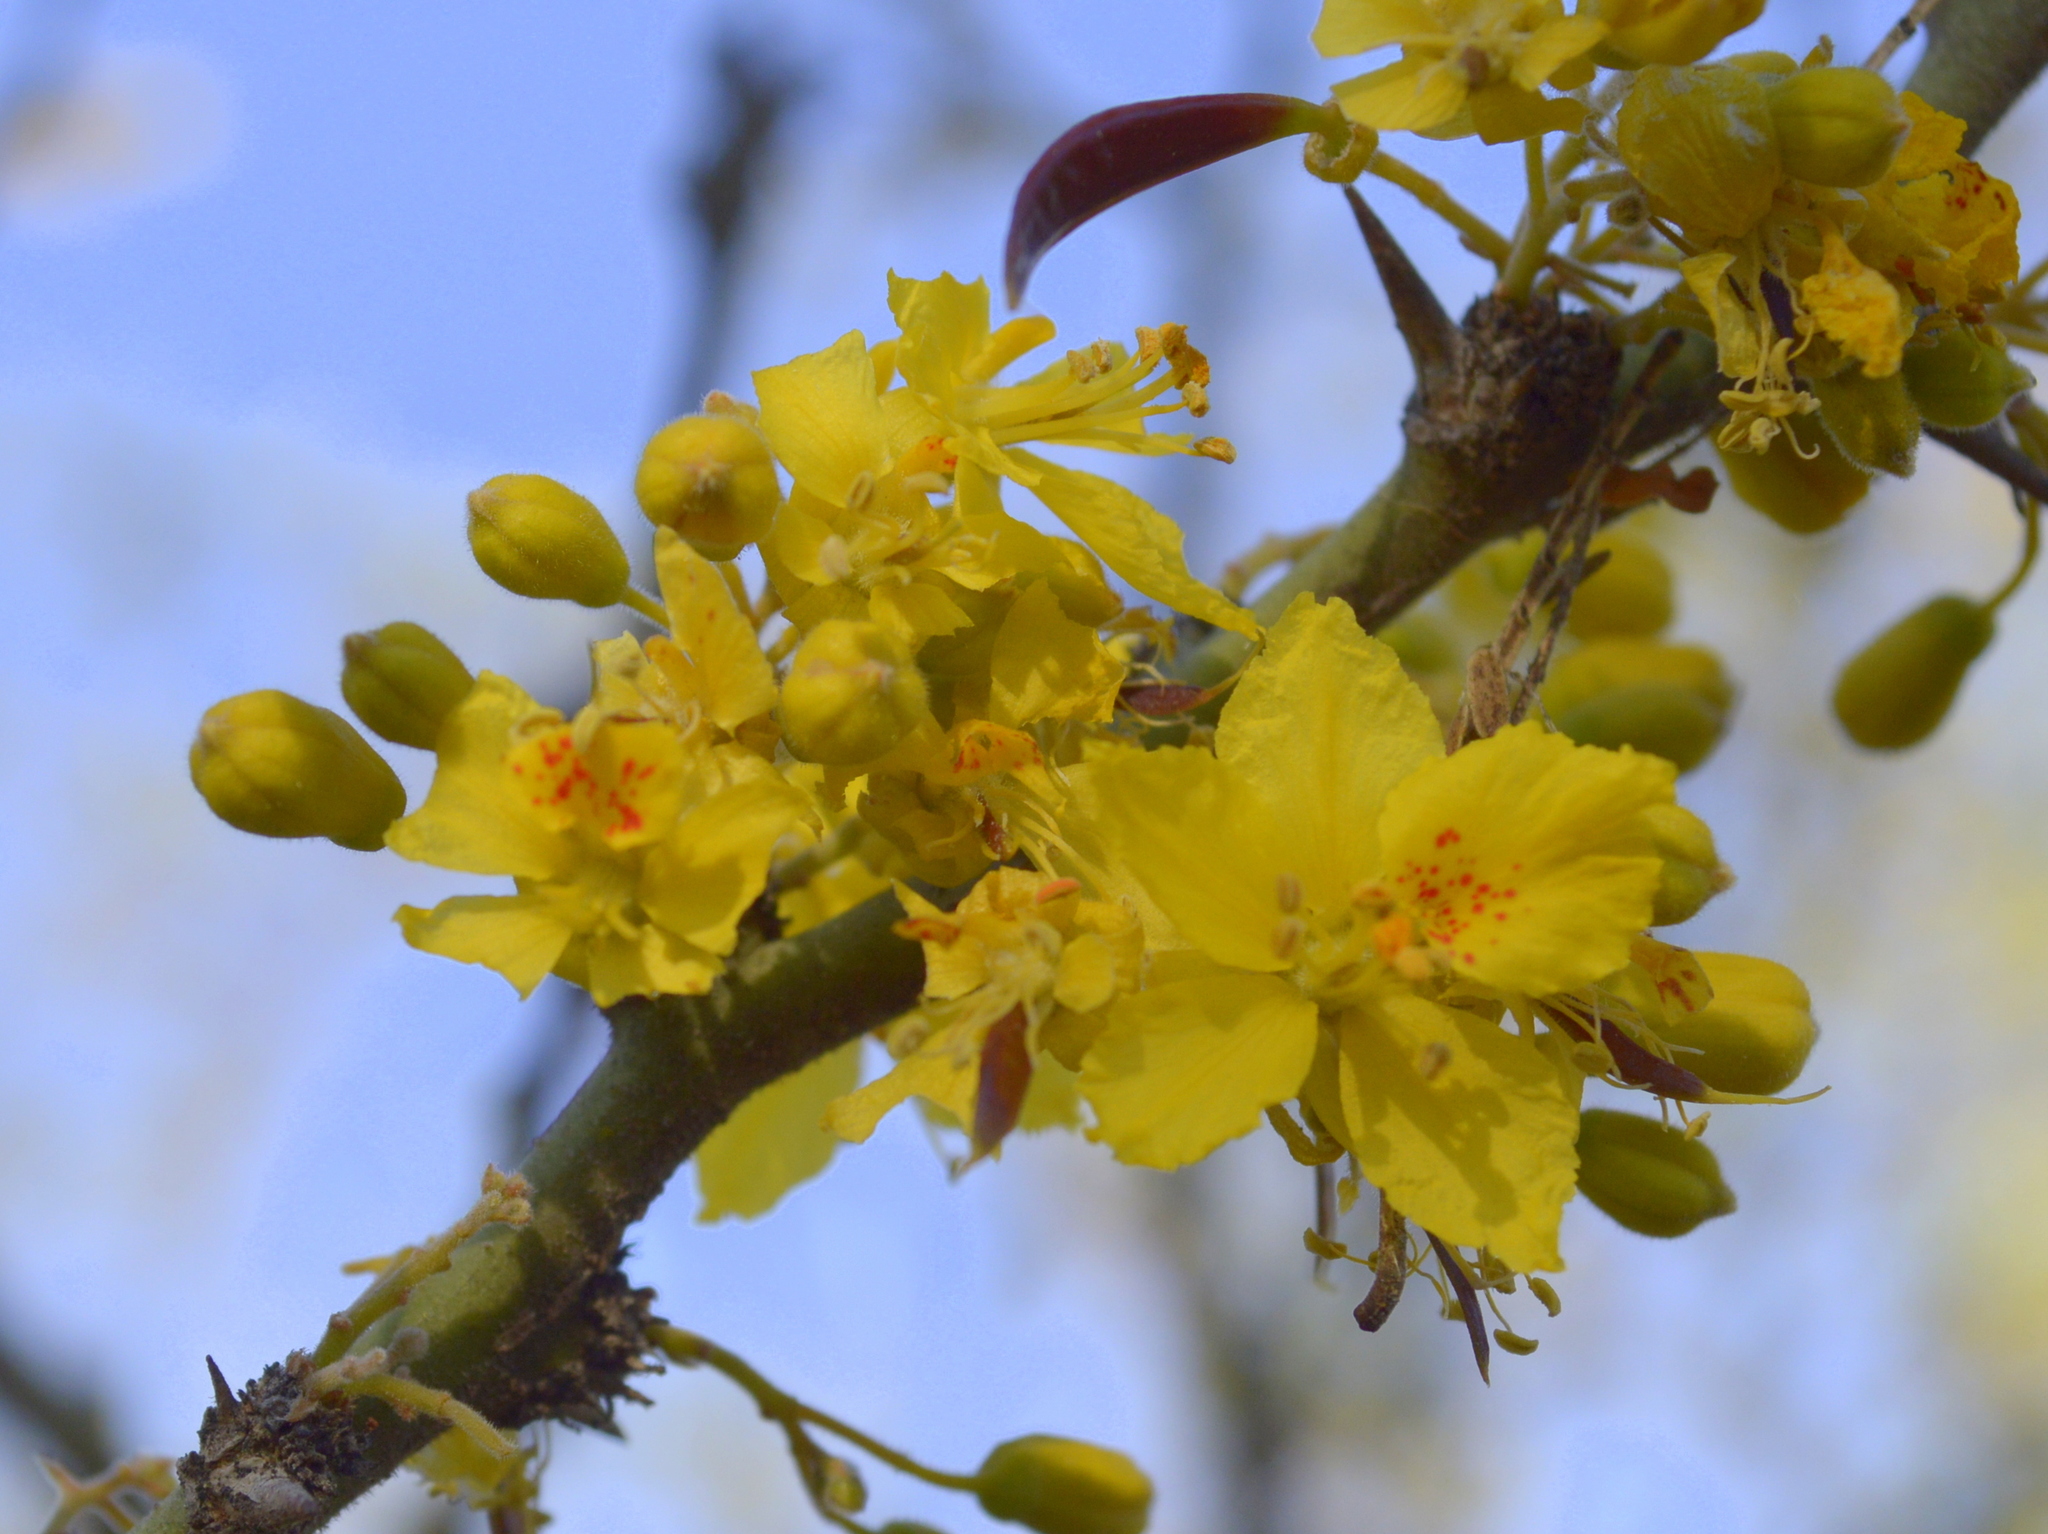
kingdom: Plantae
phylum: Tracheophyta
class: Magnoliopsida
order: Fabales
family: Fabaceae
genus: Parkinsonia
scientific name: Parkinsonia praecox
